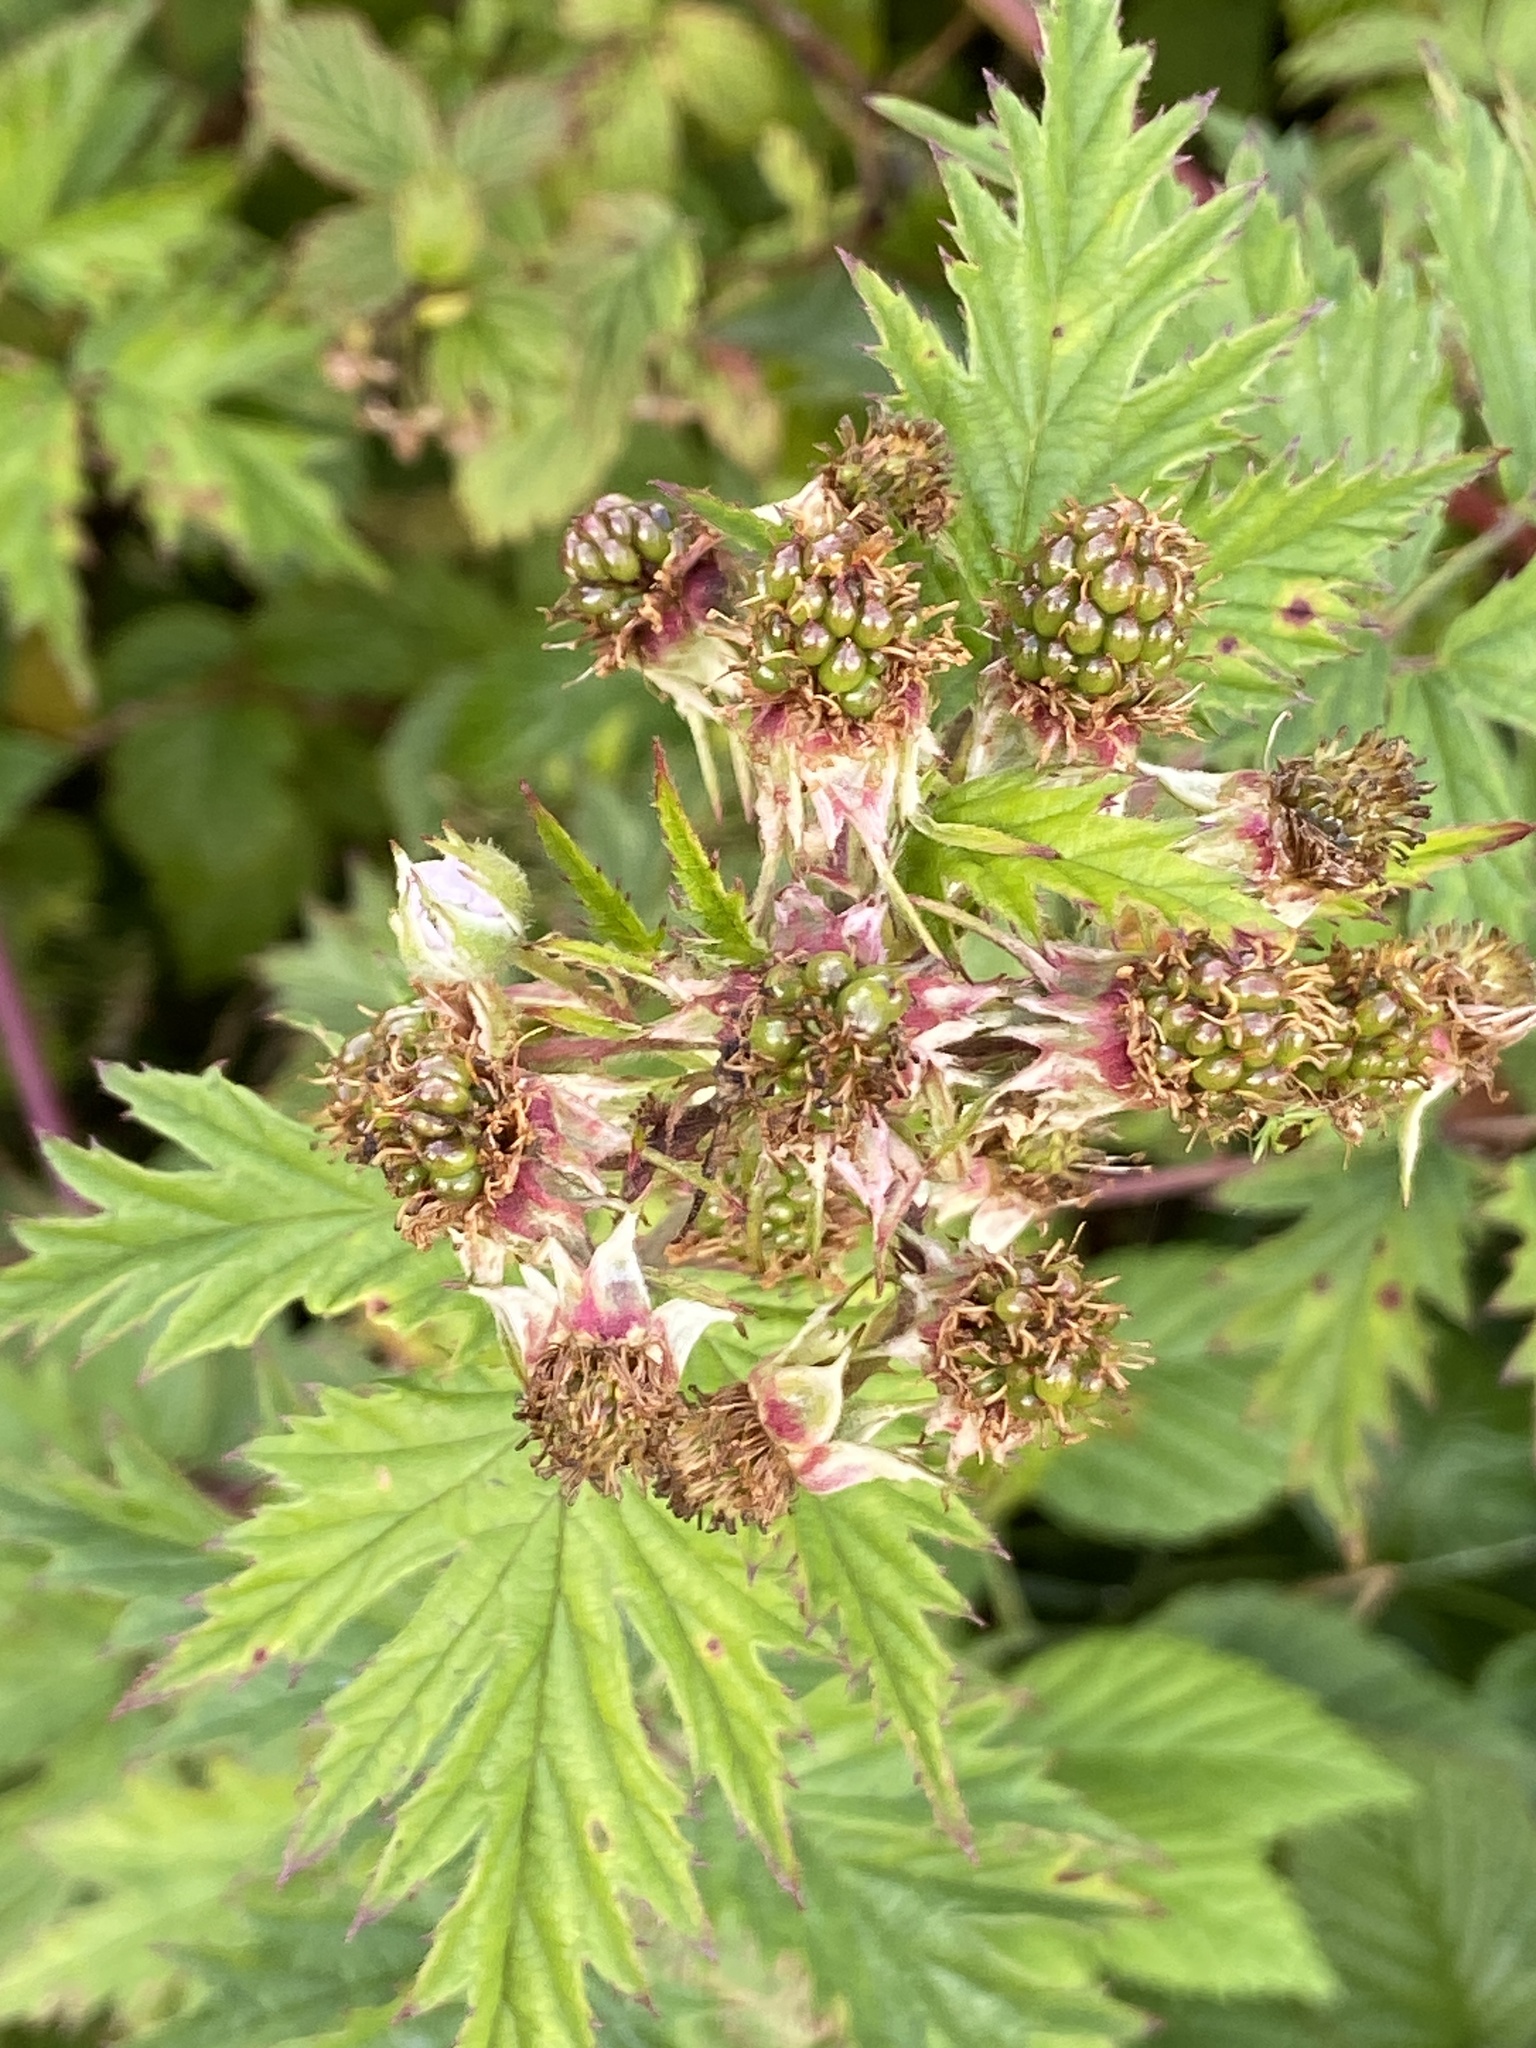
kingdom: Plantae
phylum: Tracheophyta
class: Magnoliopsida
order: Rosales
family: Rosaceae
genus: Rubus
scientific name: Rubus laciniatus
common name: Evergreen blackberry
